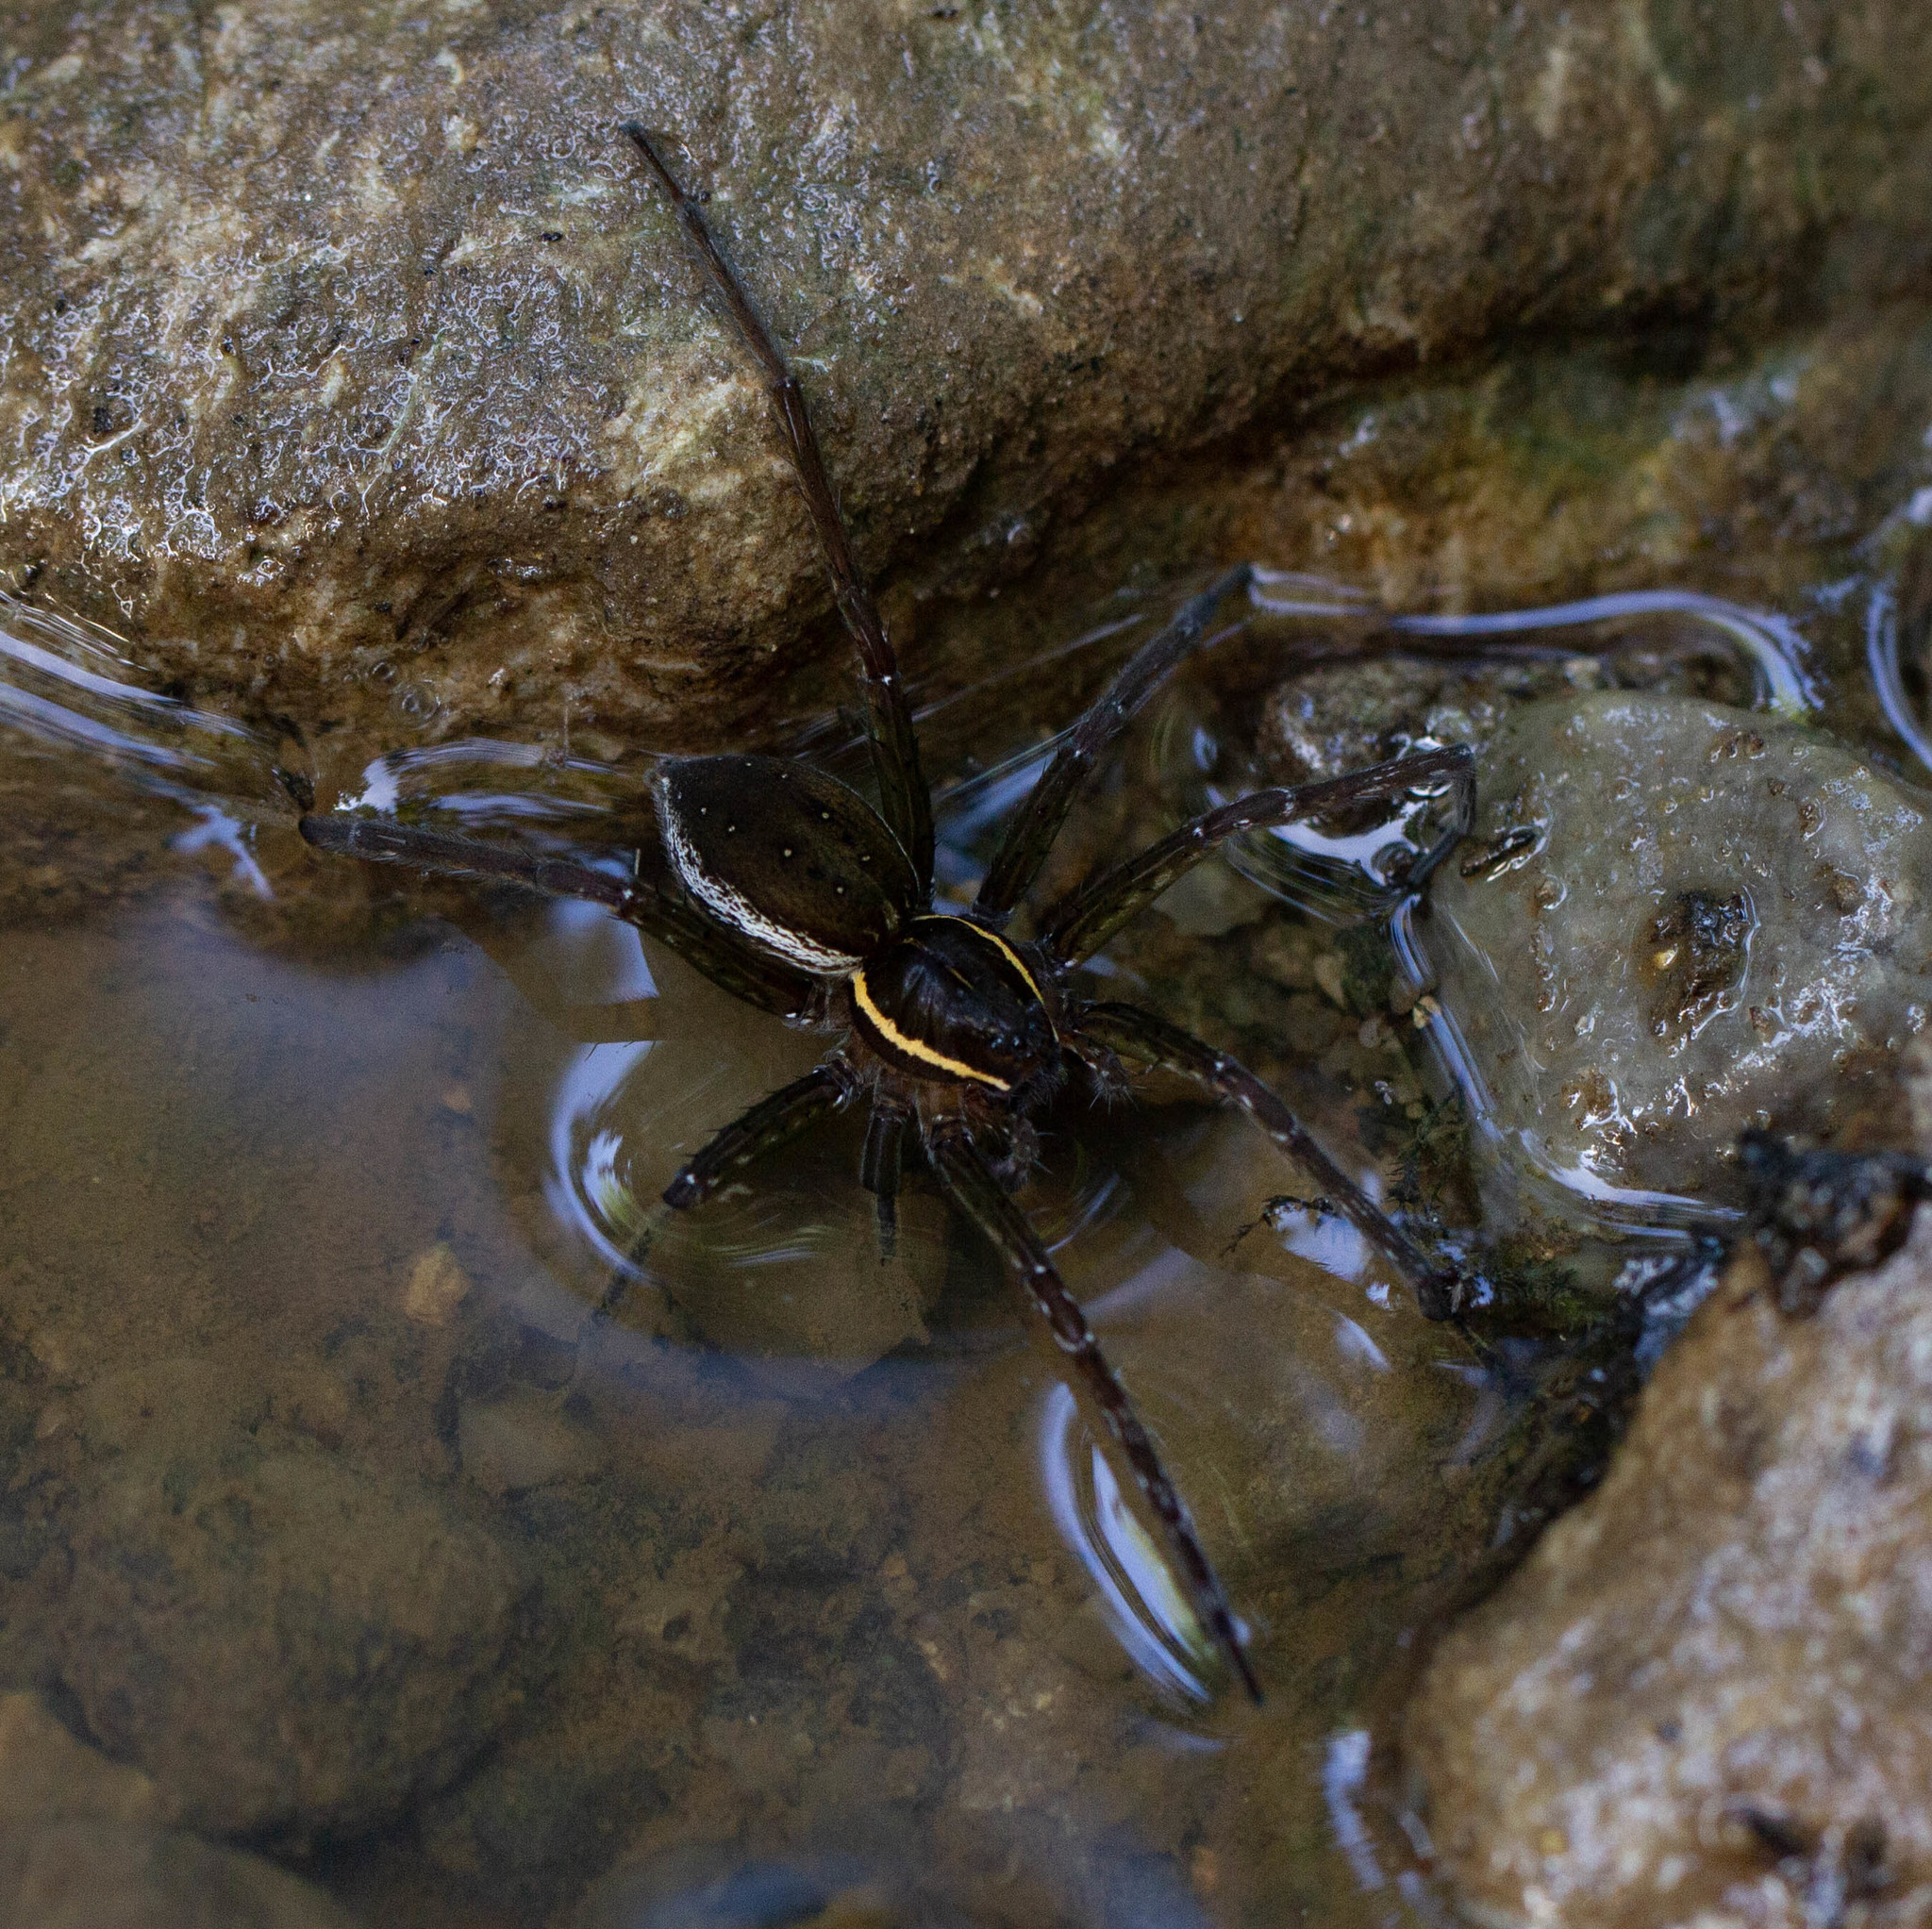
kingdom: Animalia
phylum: Arthropoda
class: Arachnida
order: Araneae
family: Pisauridae
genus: Dolomedes
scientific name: Dolomedes triton
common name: Six-spotted fishing spider
